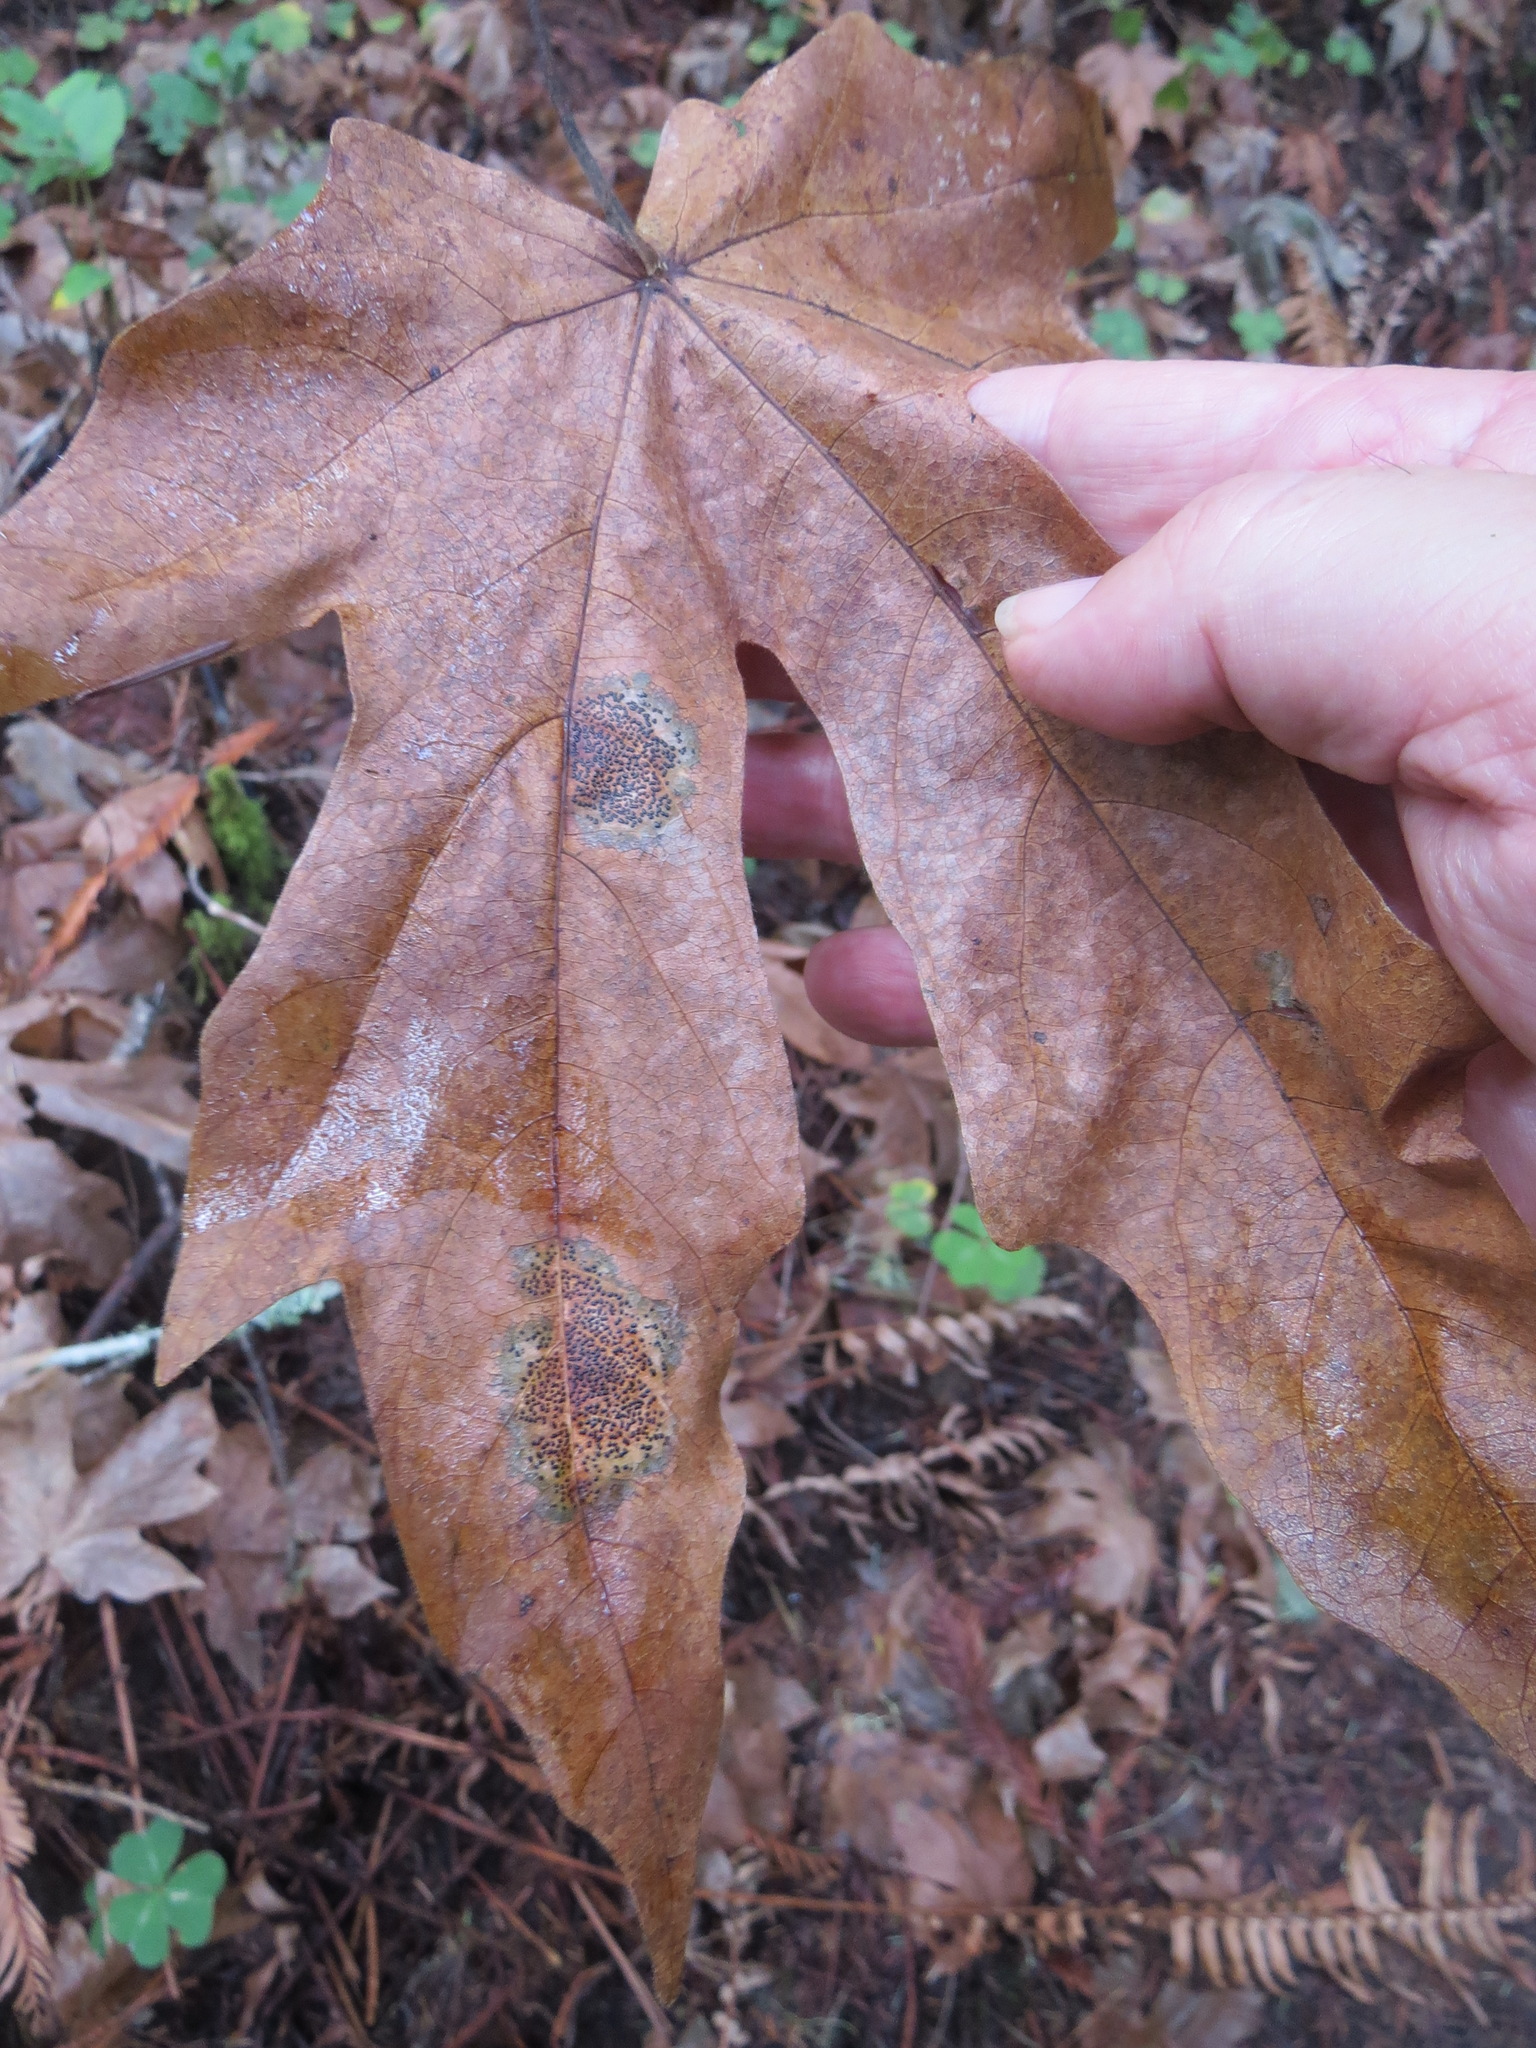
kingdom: Fungi
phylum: Ascomycota
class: Leotiomycetes
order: Rhytismatales
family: Rhytismataceae
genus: Rhytisma
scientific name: Rhytisma punctatum
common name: Speckled tar spot
